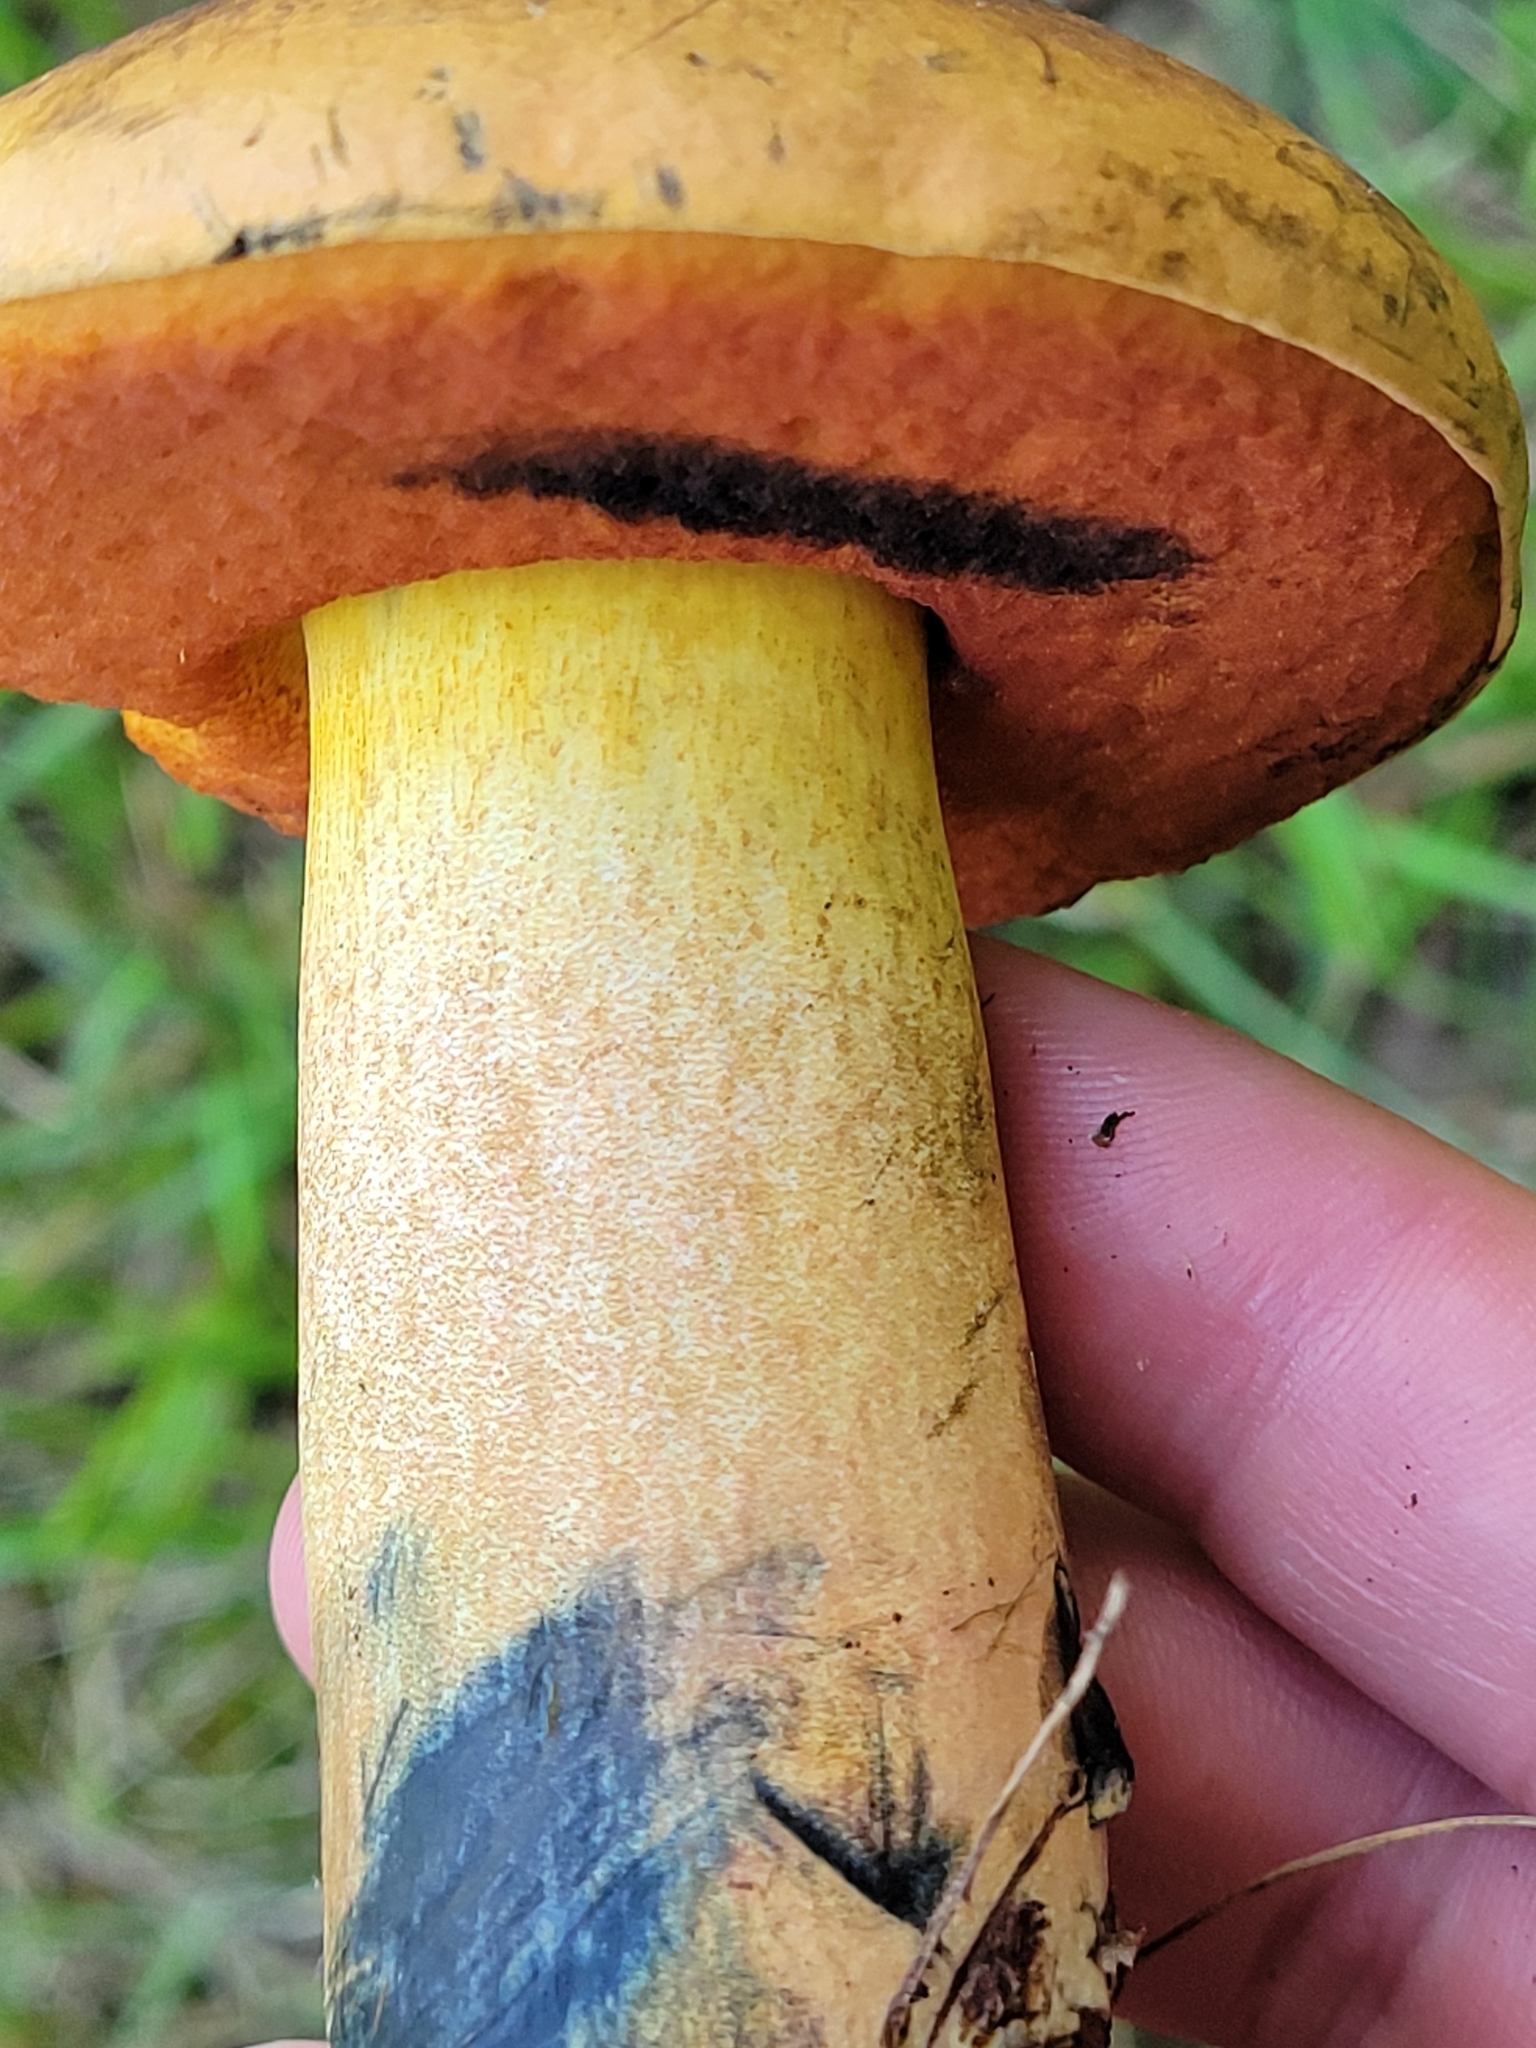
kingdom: Fungi
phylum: Basidiomycota
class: Agaricomycetes
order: Boletales
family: Boletaceae
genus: Boletus
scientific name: Boletus subvelutipes
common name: Red-mouth bolete
